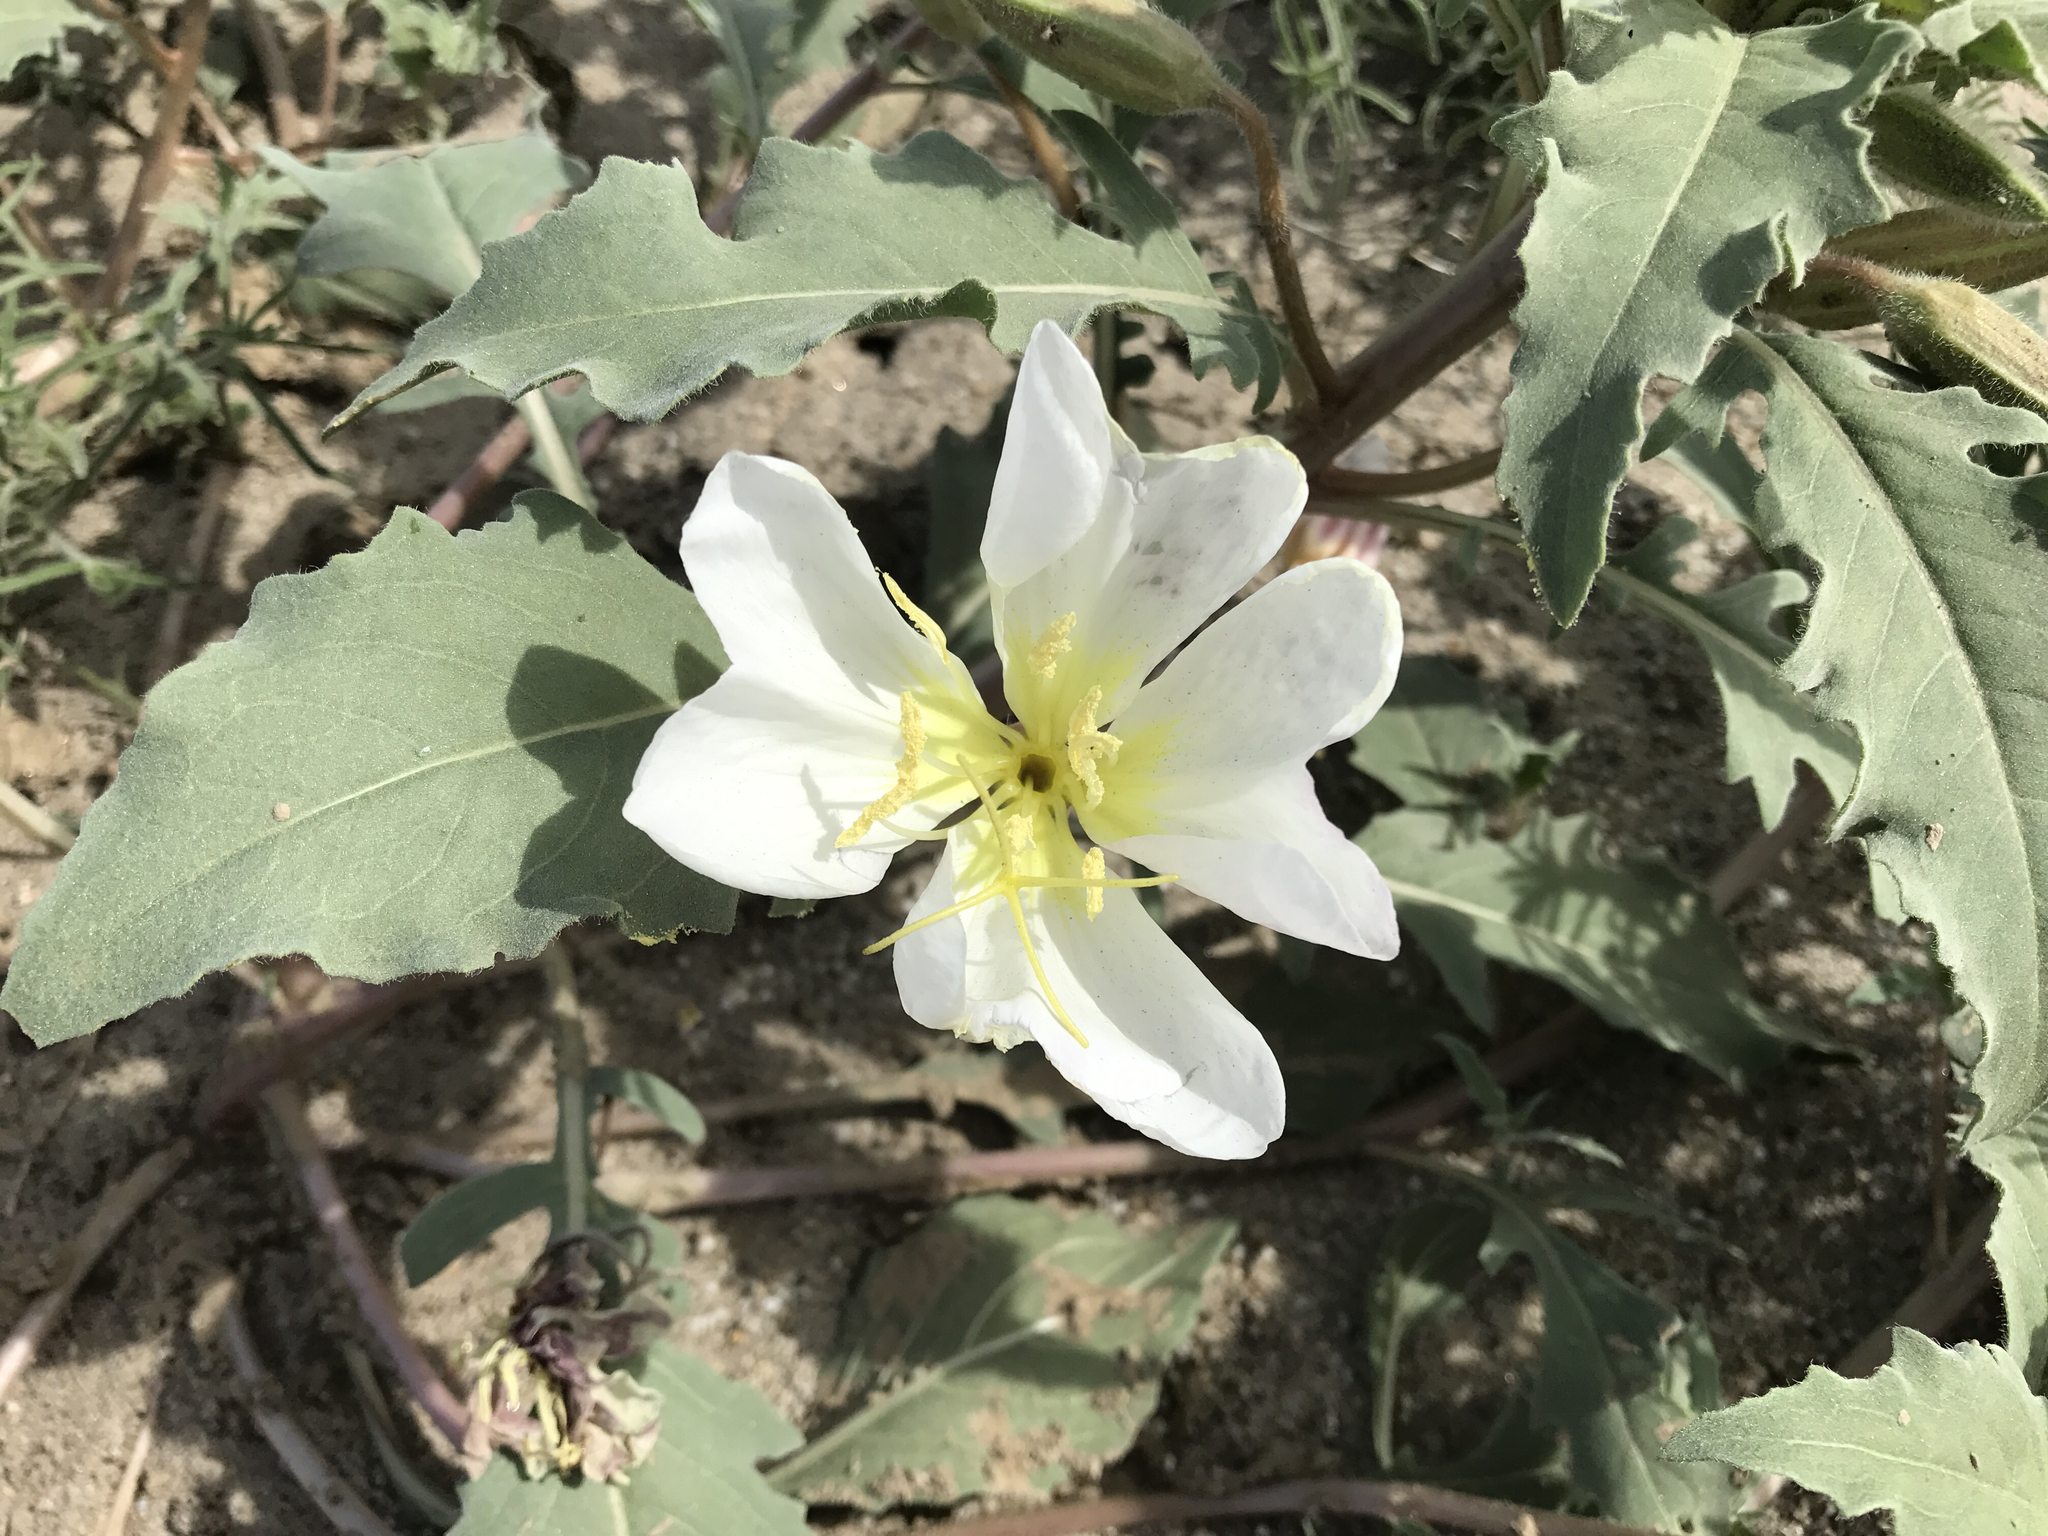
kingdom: Plantae
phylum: Tracheophyta
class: Magnoliopsida
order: Myrtales
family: Onagraceae
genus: Oenothera
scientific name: Oenothera deltoides
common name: Basket evening-primrose
